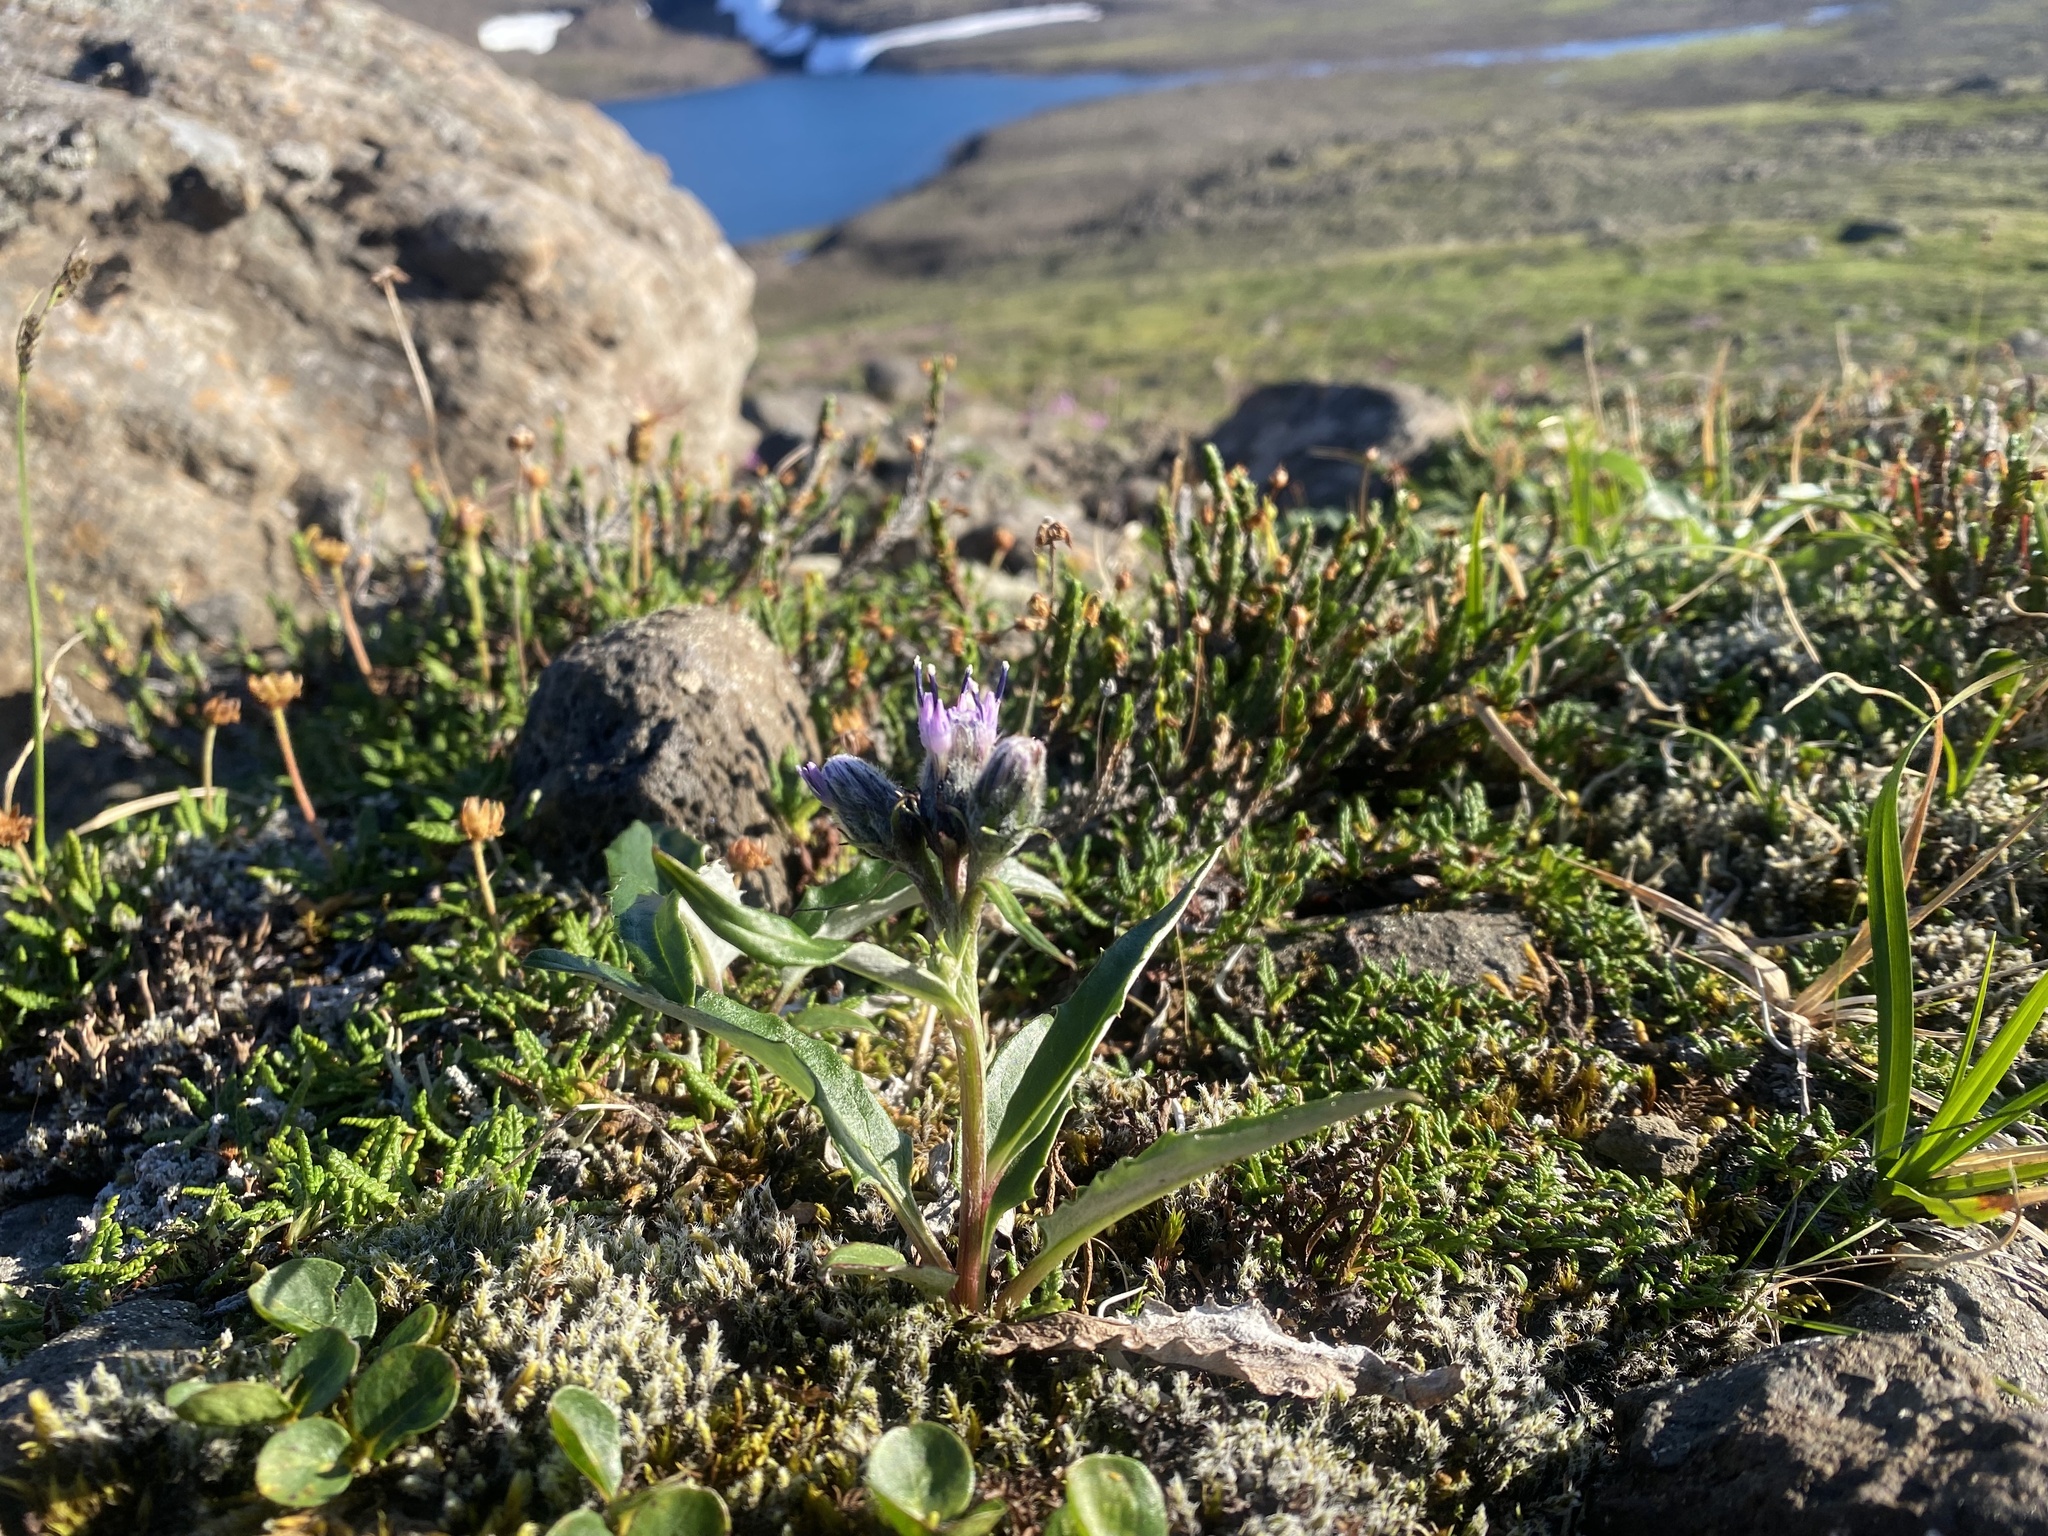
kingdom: Plantae
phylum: Tracheophyta
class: Magnoliopsida
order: Asterales
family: Asteraceae
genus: Saussurea
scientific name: Saussurea tilesii
